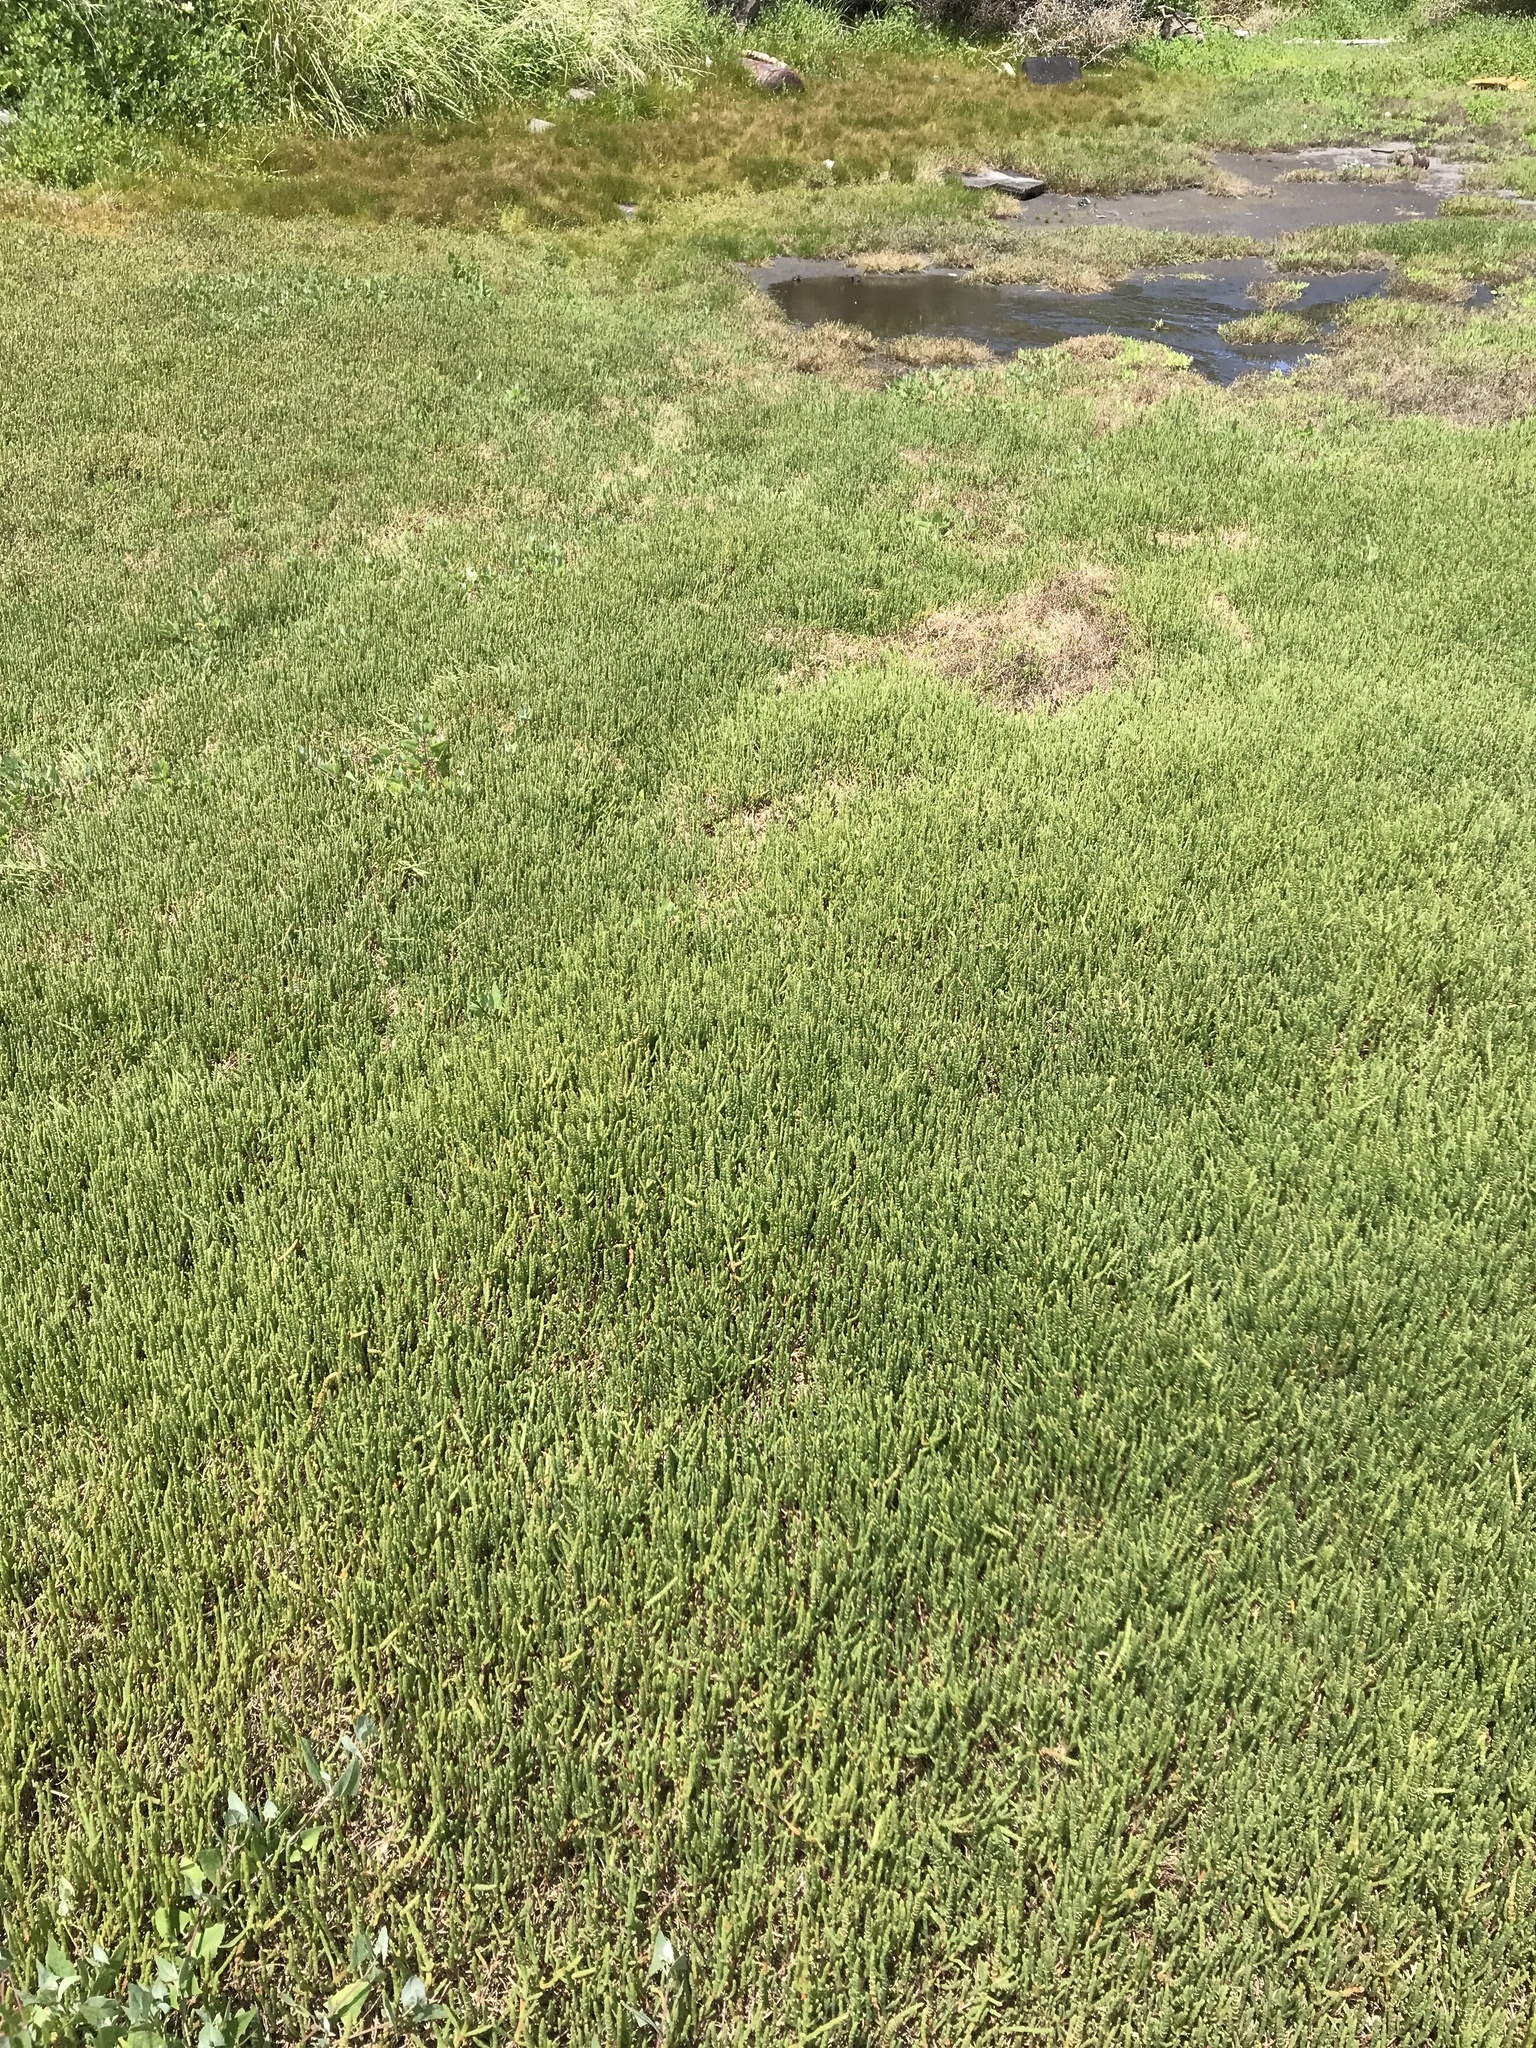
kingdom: Plantae
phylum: Tracheophyta
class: Magnoliopsida
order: Caryophyllales
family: Amaranthaceae
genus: Salicornia
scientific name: Salicornia quinqueflora
